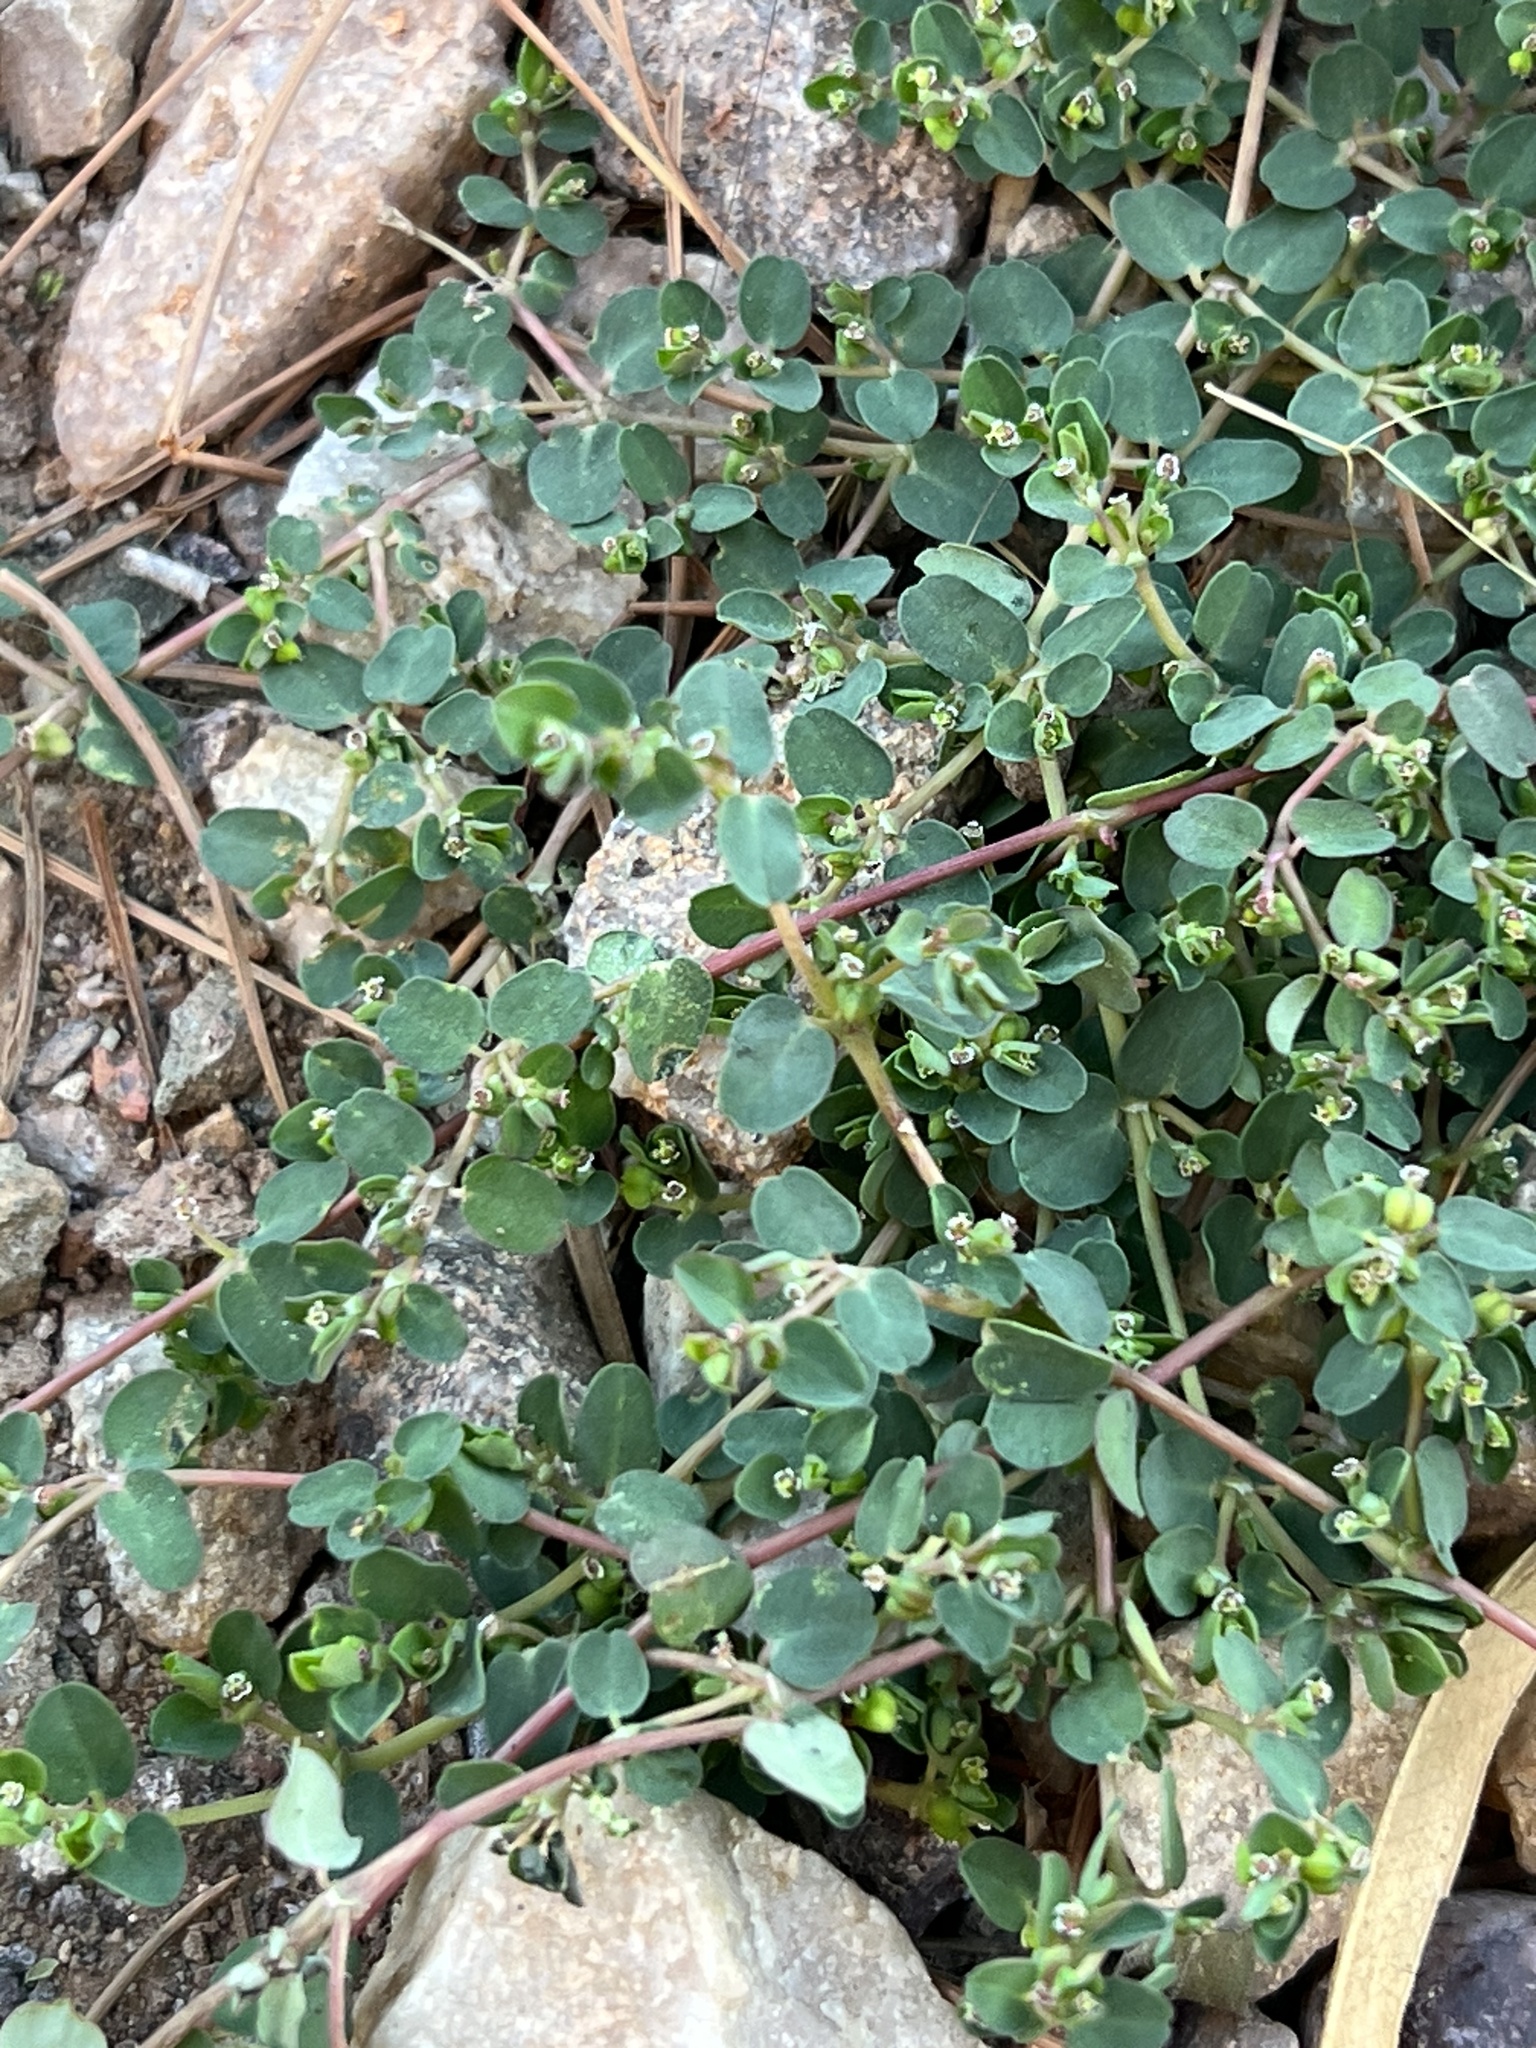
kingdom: Plantae
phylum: Tracheophyta
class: Magnoliopsida
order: Malpighiales
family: Euphorbiaceae
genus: Euphorbia
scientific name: Euphorbia serpens
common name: Matted sandmat
